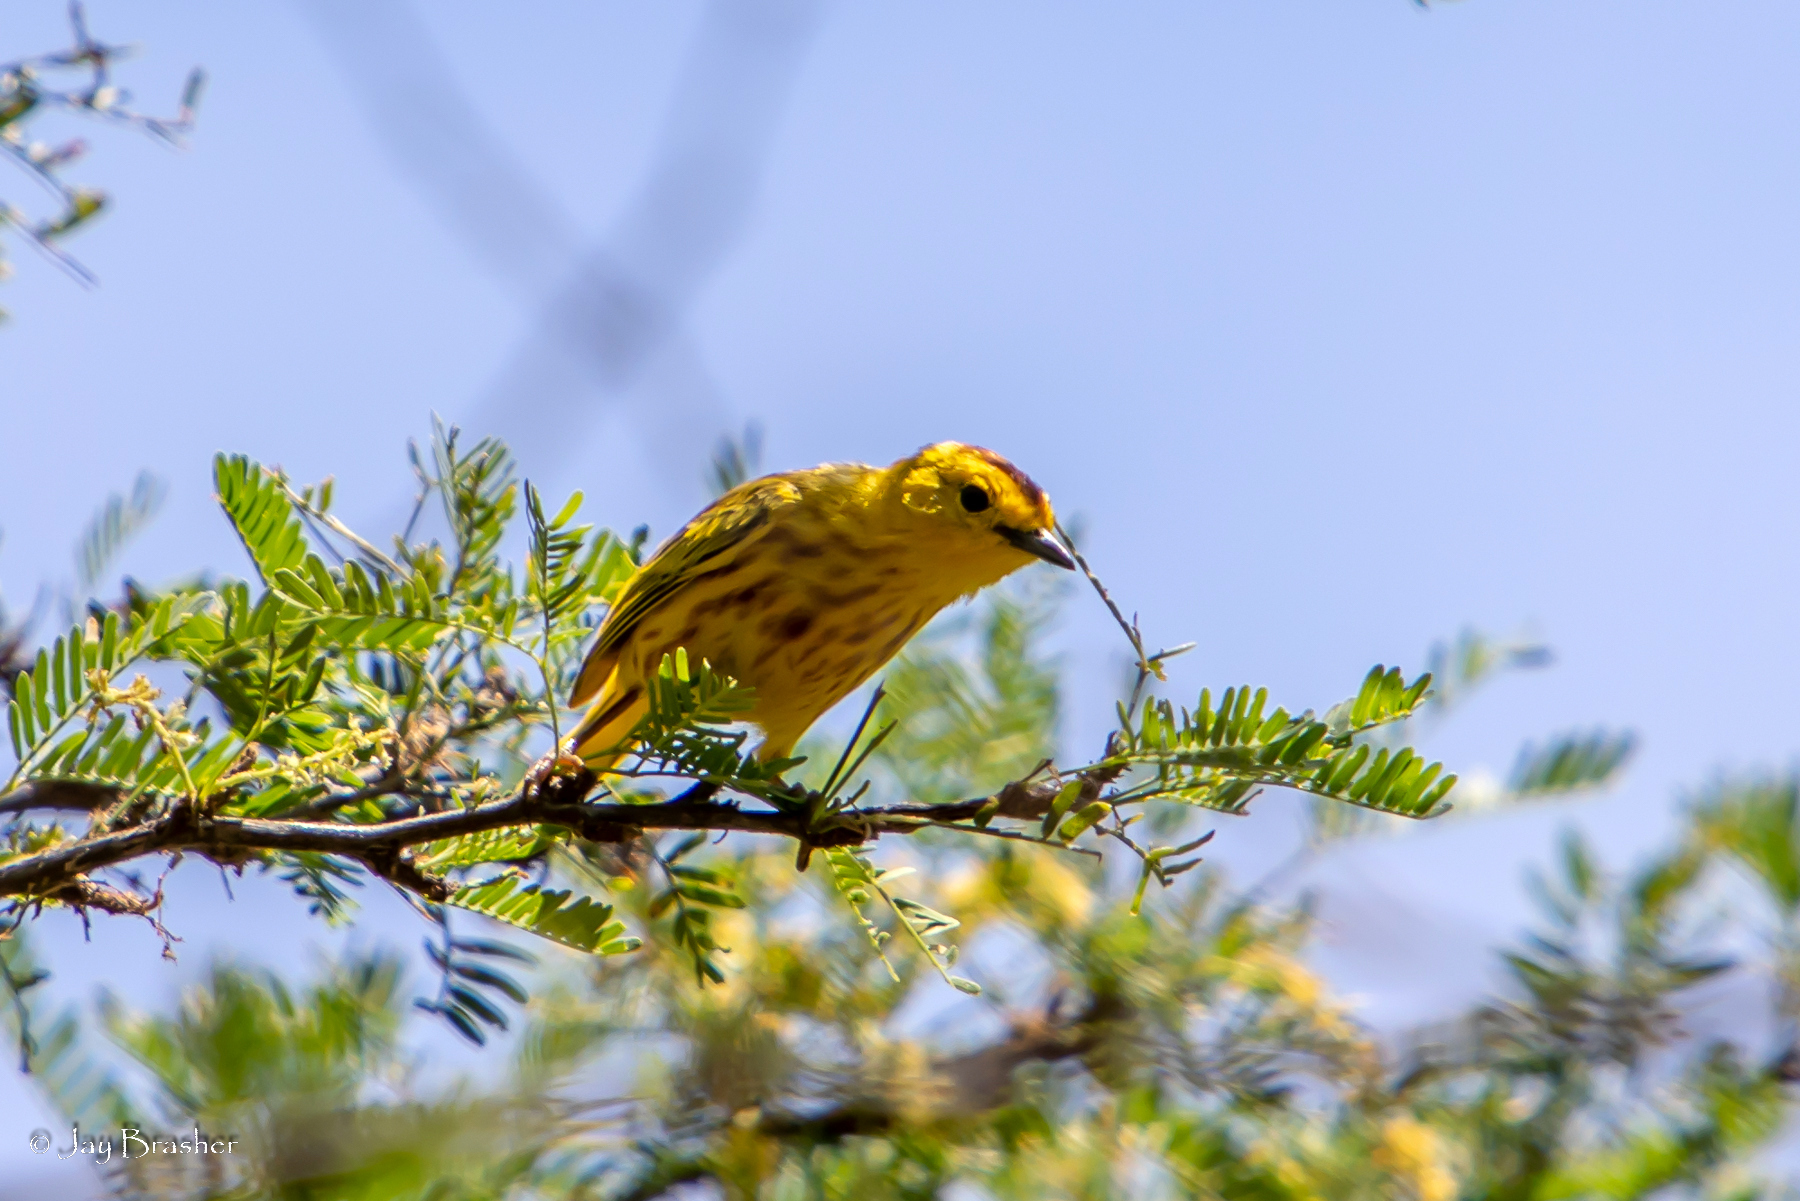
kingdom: Animalia
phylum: Chordata
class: Aves
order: Passeriformes
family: Parulidae
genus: Setophaga
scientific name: Setophaga petechia
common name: Yellow warbler
